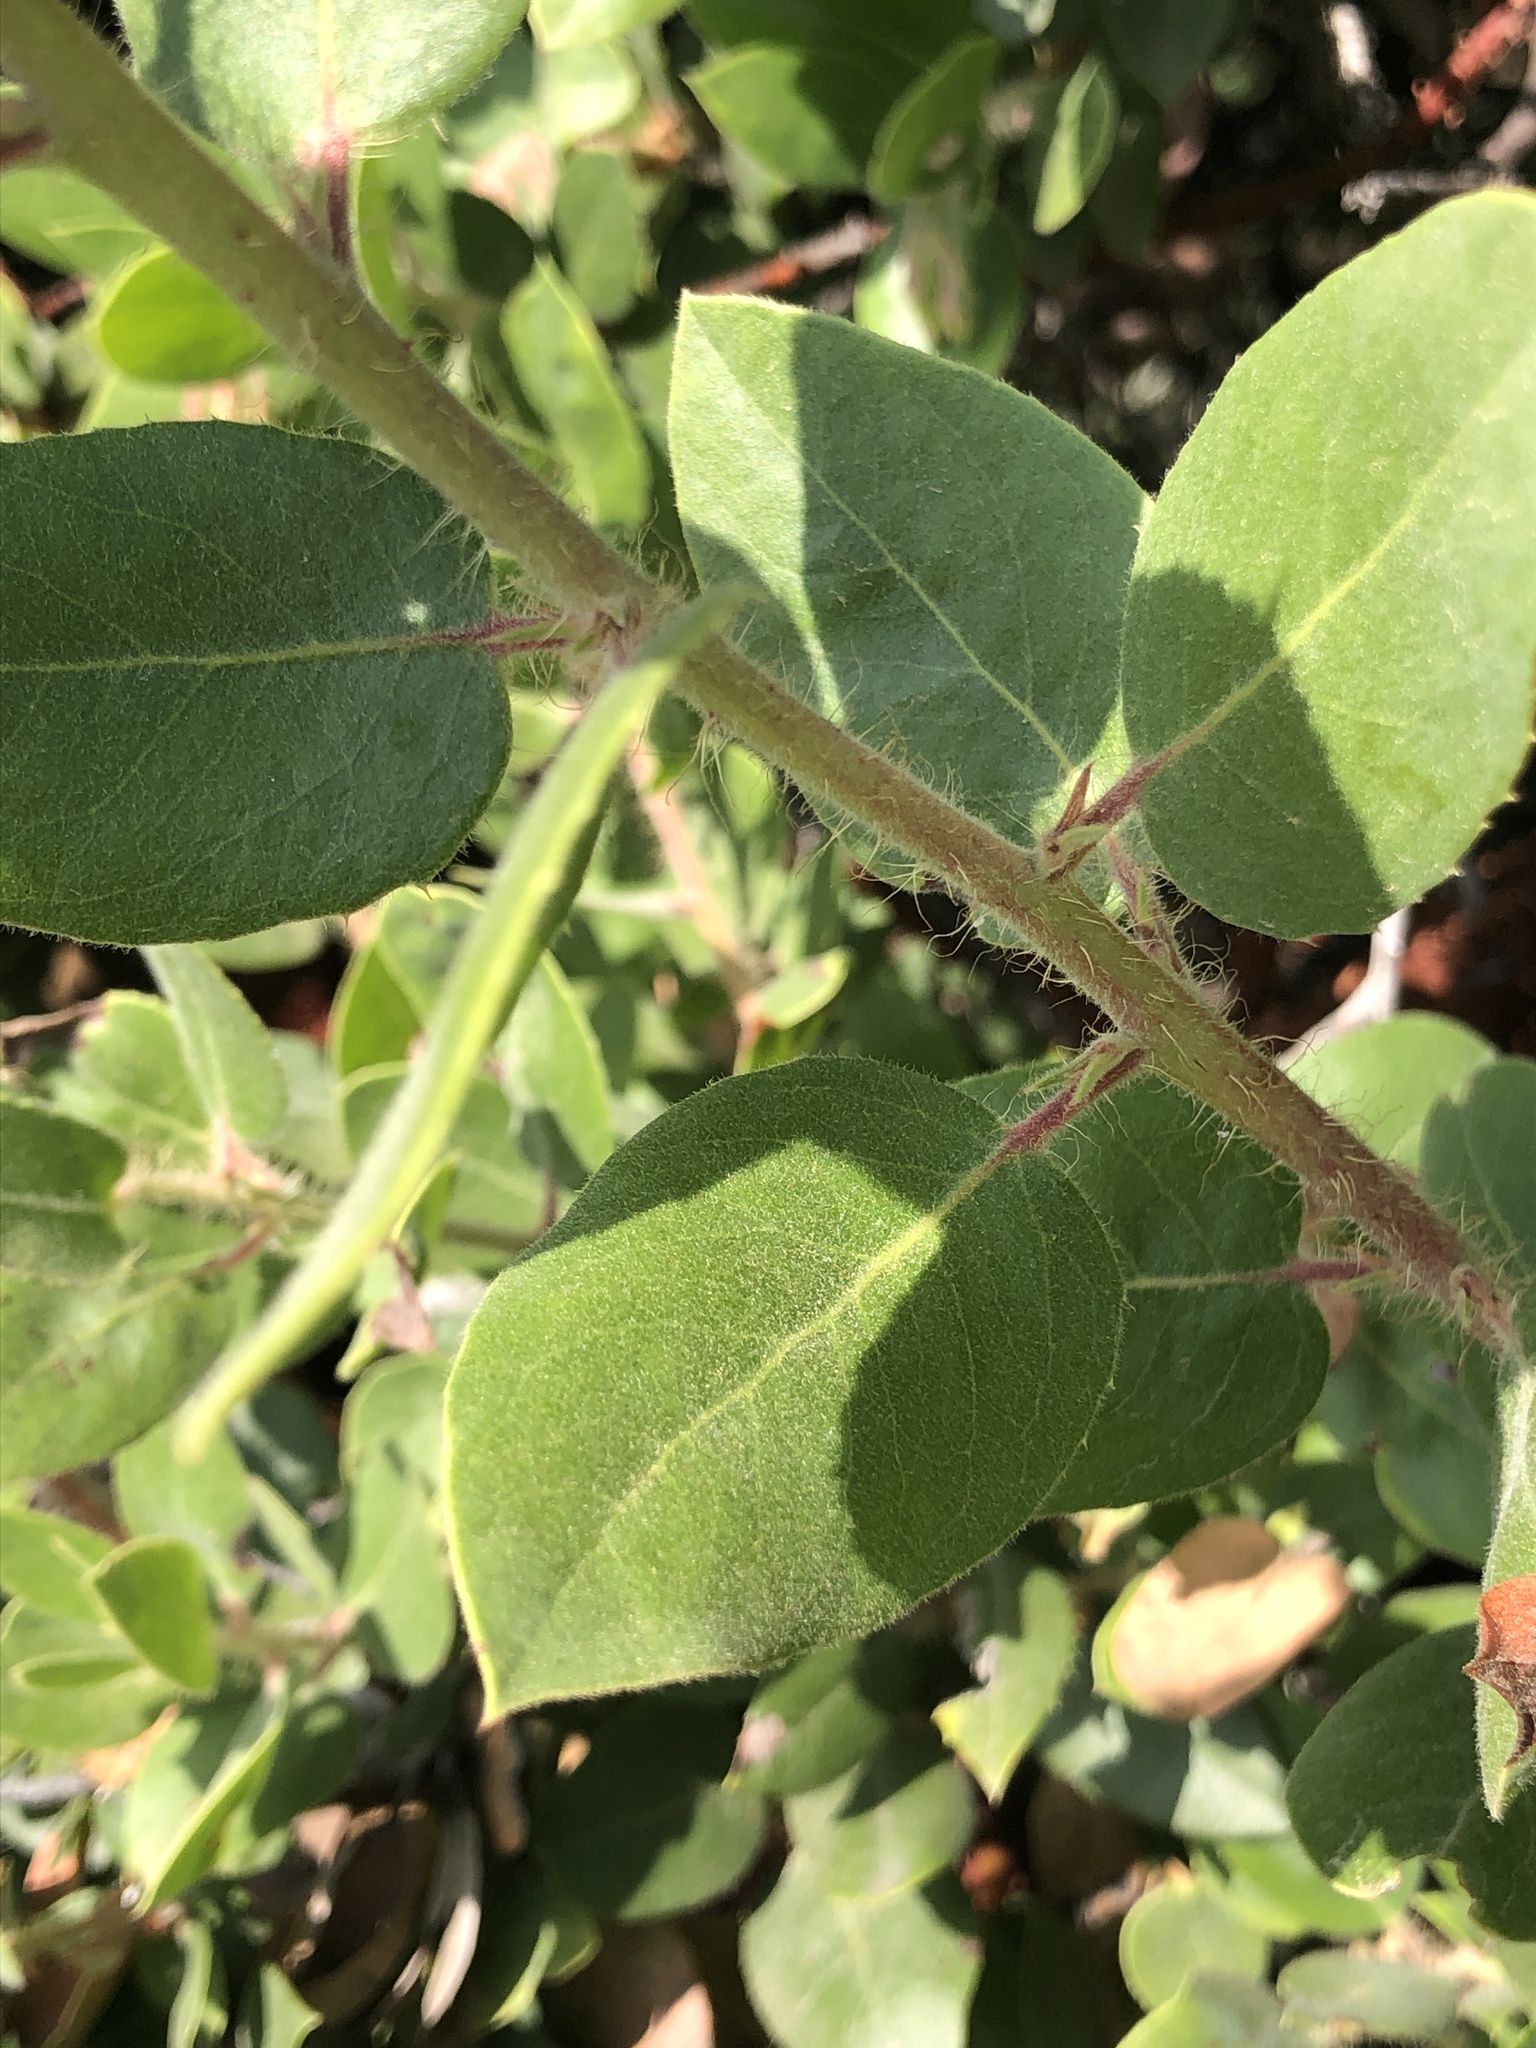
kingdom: Plantae
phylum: Tracheophyta
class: Magnoliopsida
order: Ericales
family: Ericaceae
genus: Arctostaphylos
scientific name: Arctostaphylos crustacea
